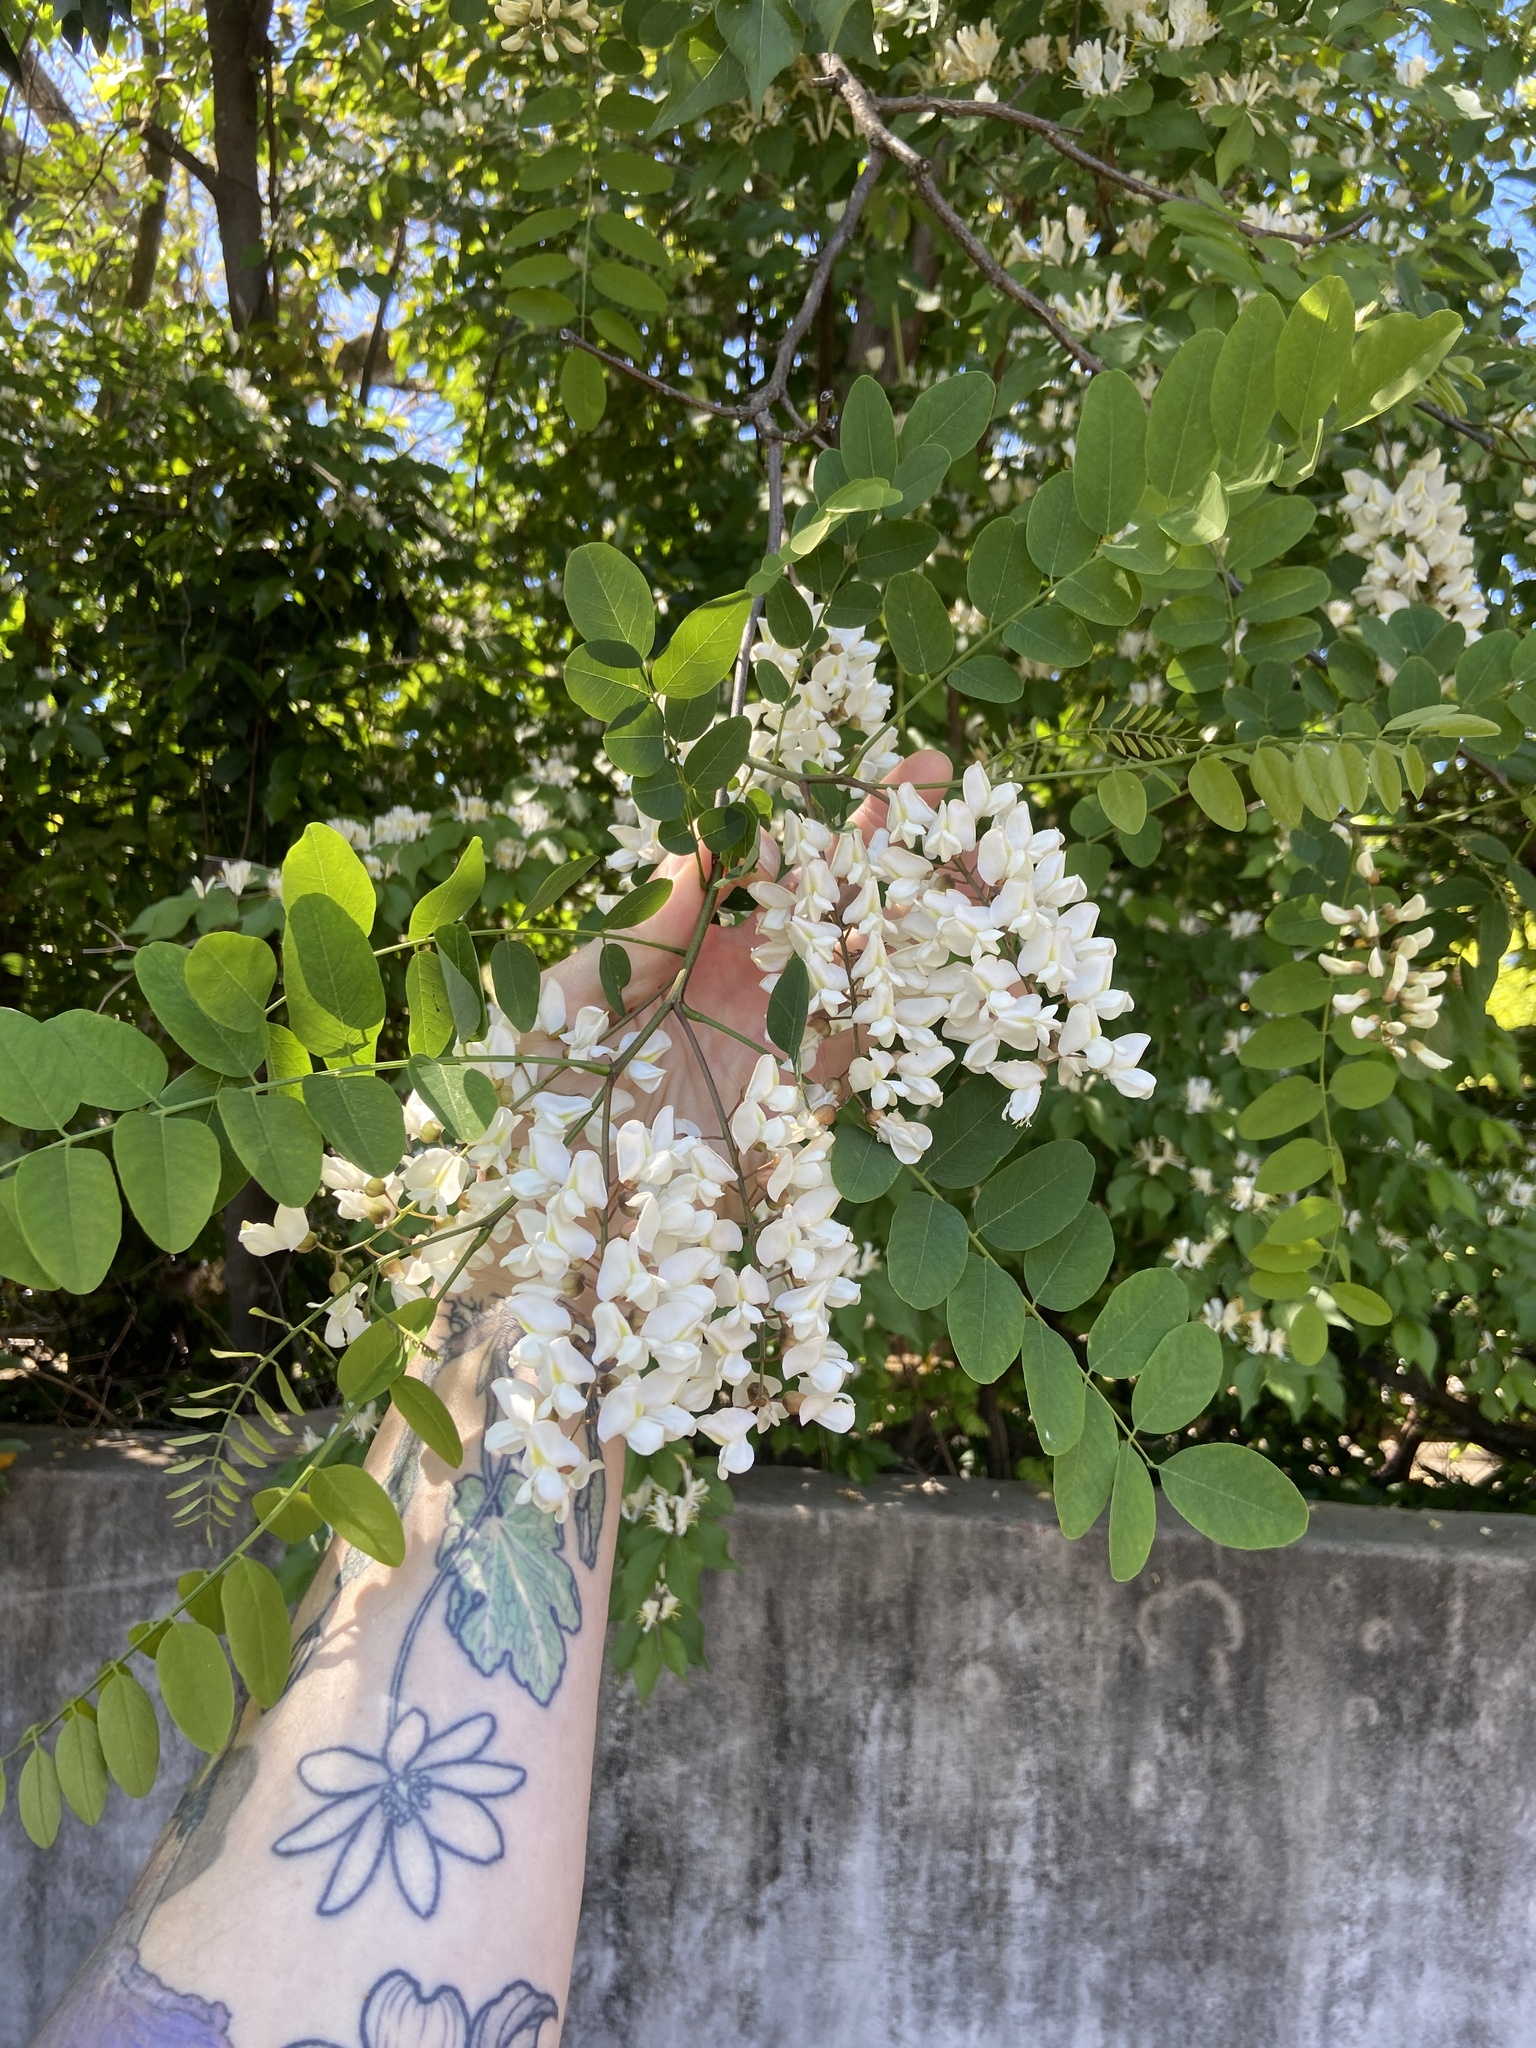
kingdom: Plantae
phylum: Tracheophyta
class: Magnoliopsida
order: Fabales
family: Fabaceae
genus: Robinia
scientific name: Robinia pseudoacacia
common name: Black locust
